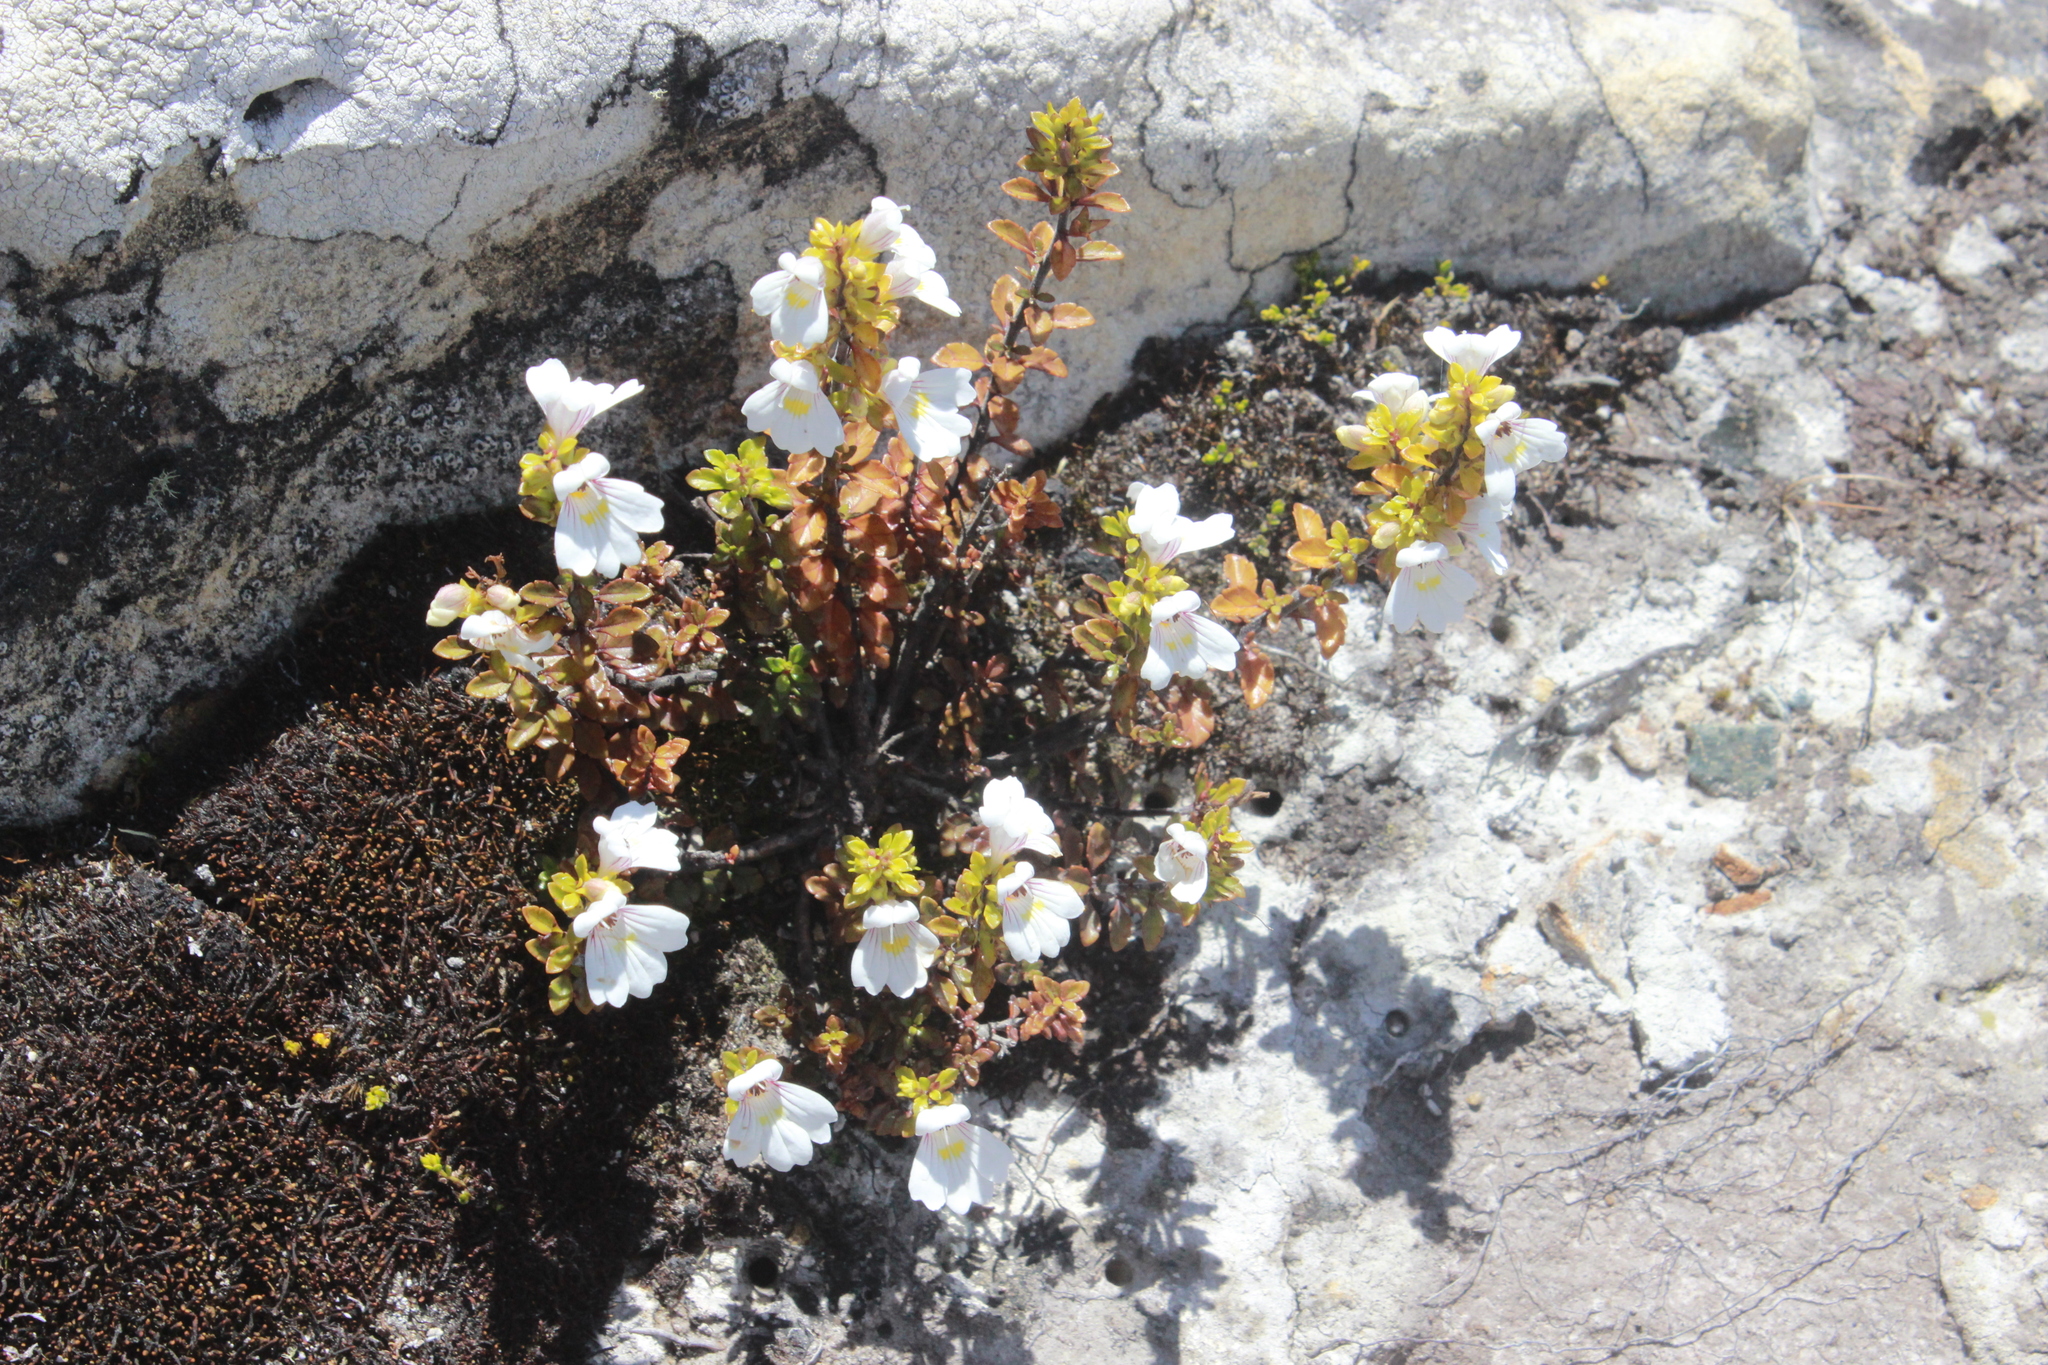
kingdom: Plantae
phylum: Tracheophyta
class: Magnoliopsida
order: Lamiales
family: Orobanchaceae
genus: Euphrasia
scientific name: Euphrasia cuneata
